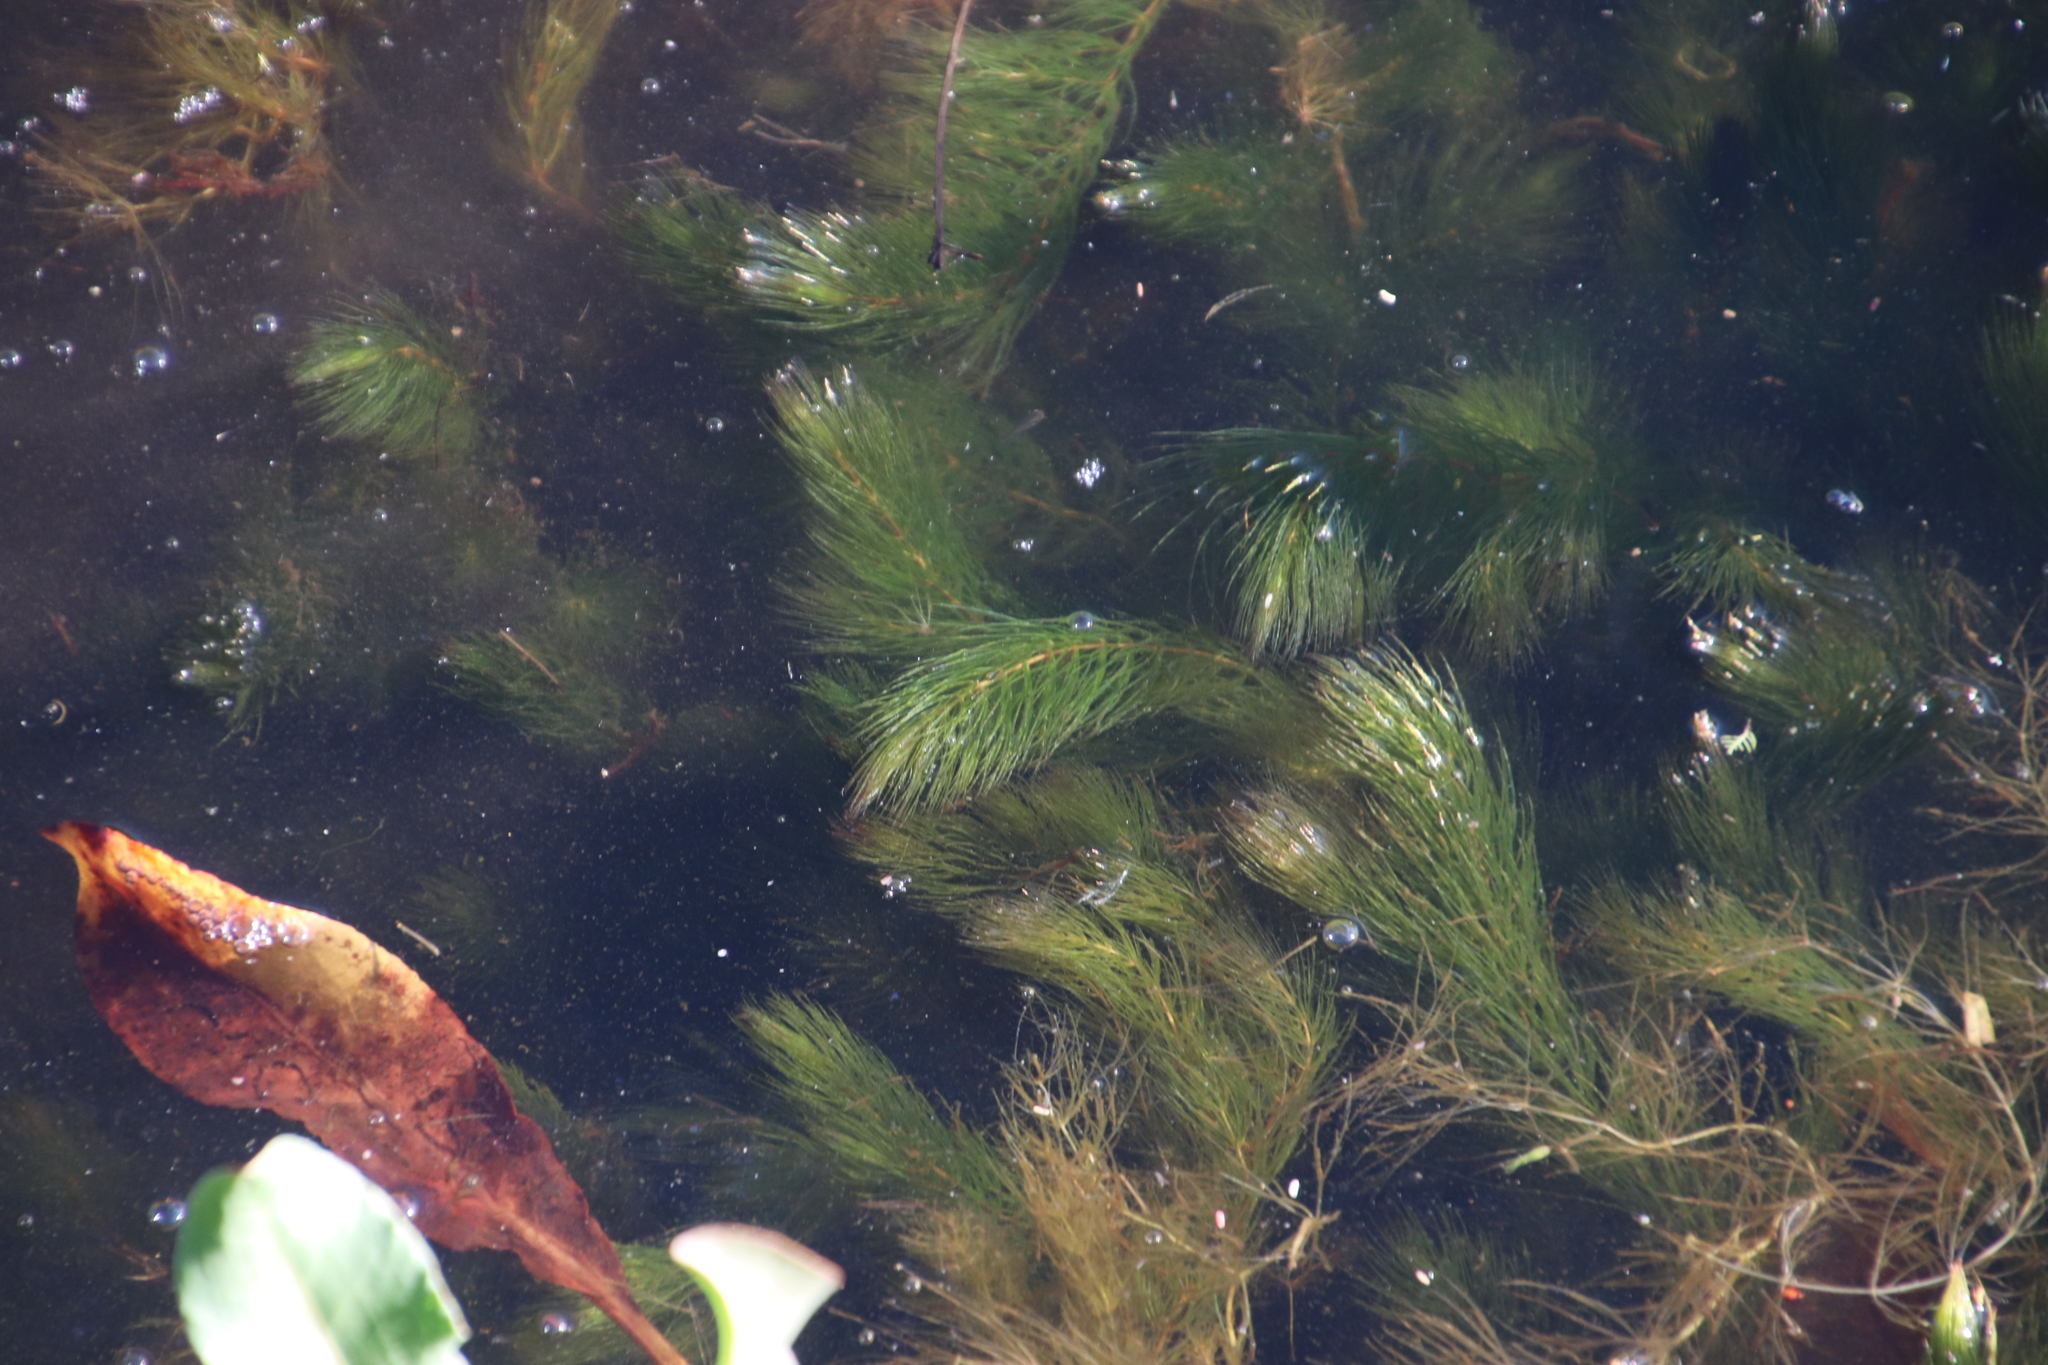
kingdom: Plantae
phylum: Tracheophyta
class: Magnoliopsida
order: Ceratophyllales
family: Ceratophyllaceae
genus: Ceratophyllum
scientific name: Ceratophyllum demersum
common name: Rigid hornwort
